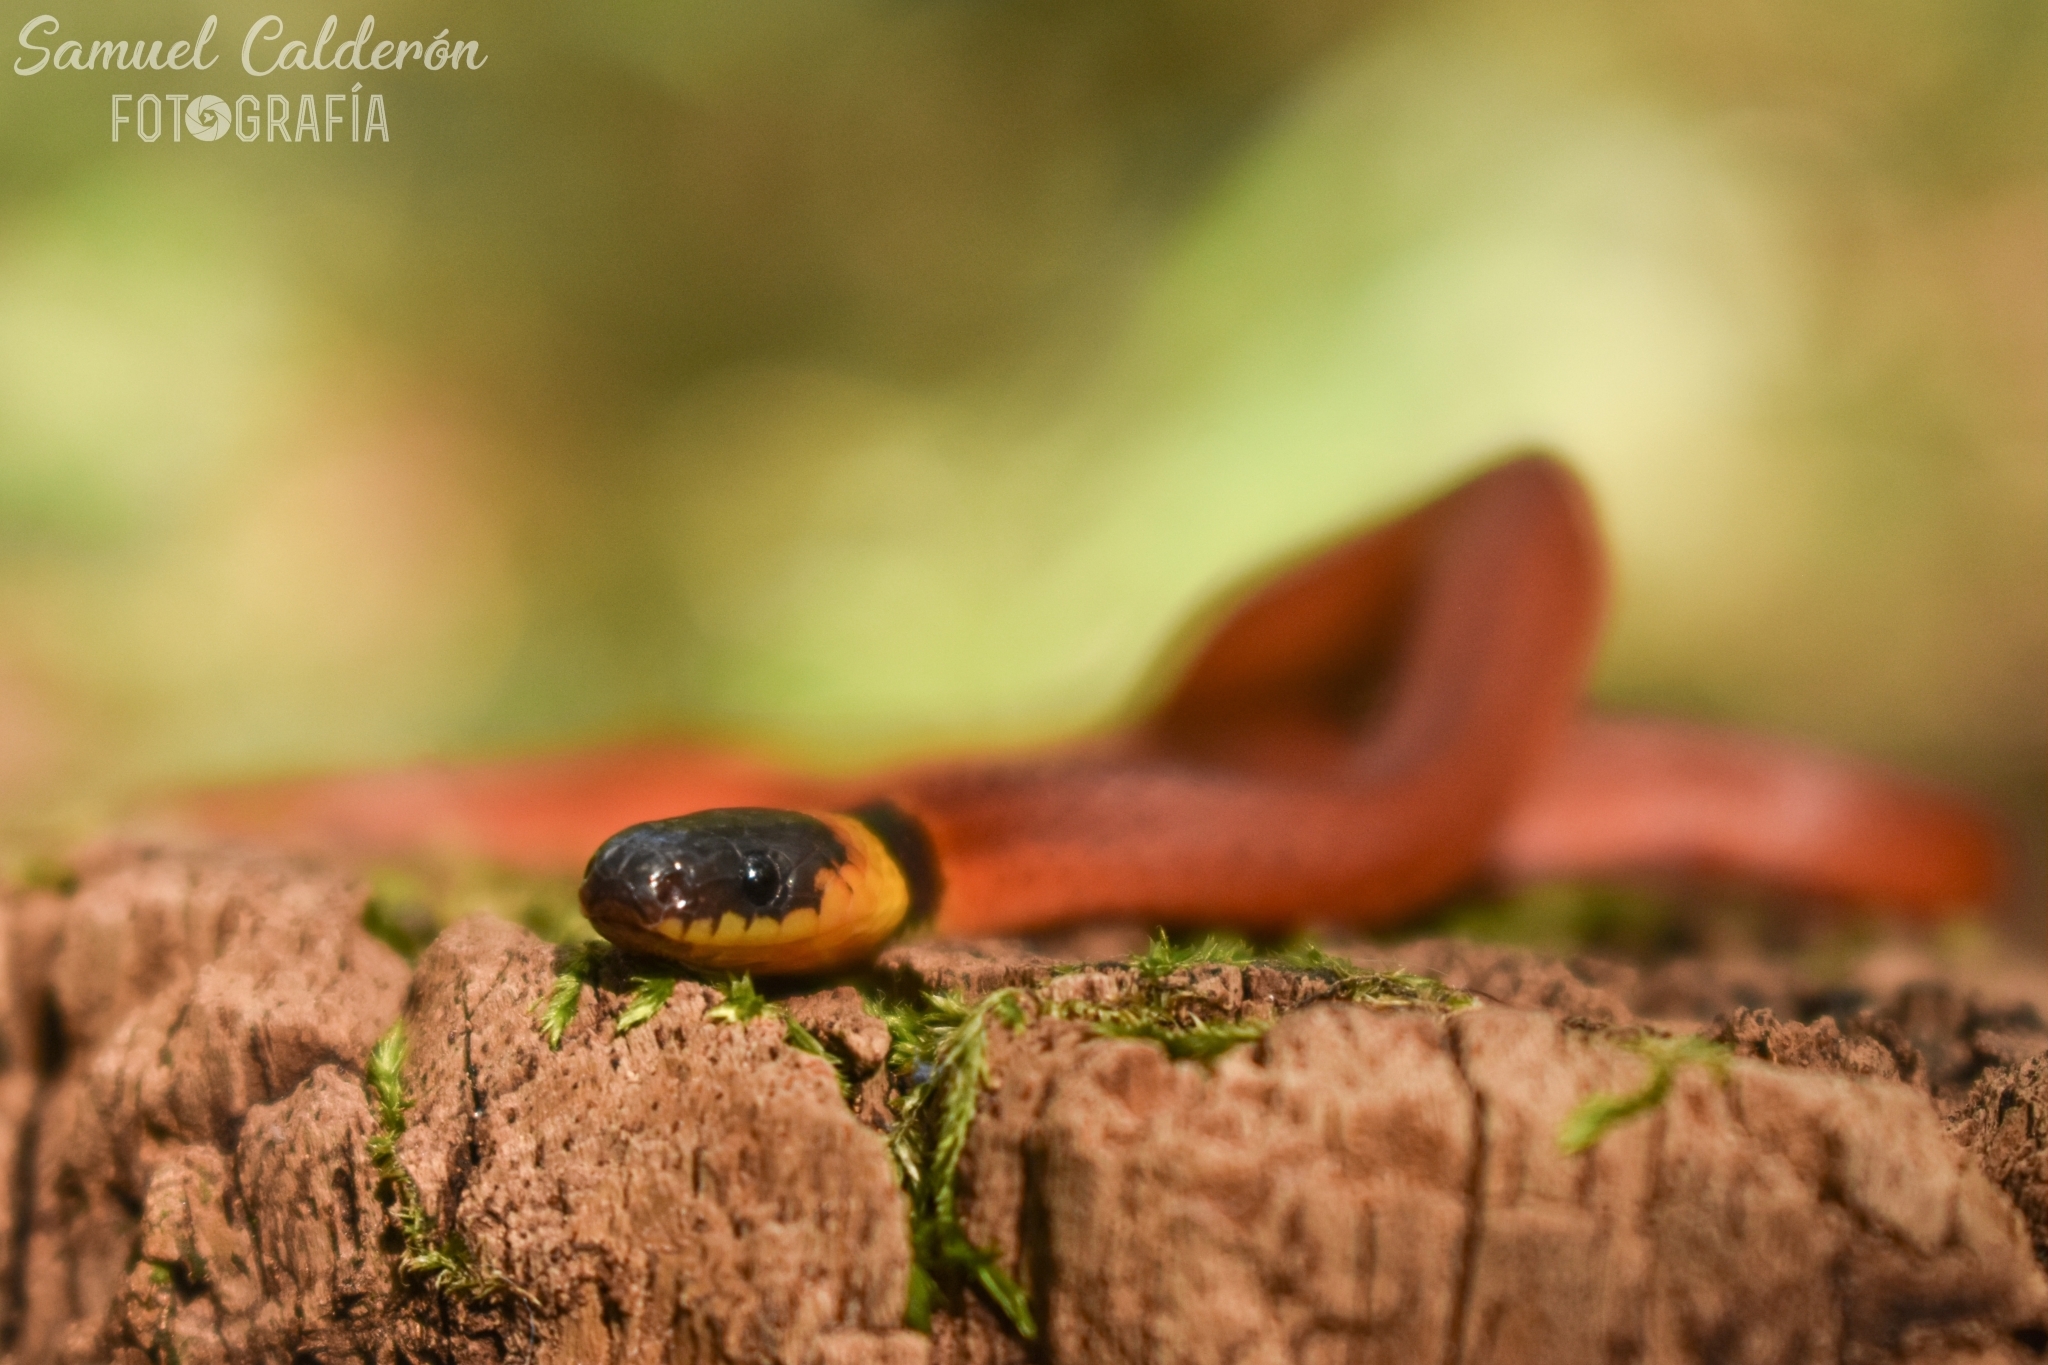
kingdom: Animalia
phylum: Chordata
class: Squamata
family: Colubridae
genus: Ninia
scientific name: Ninia sebae
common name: Redback coffee snake
